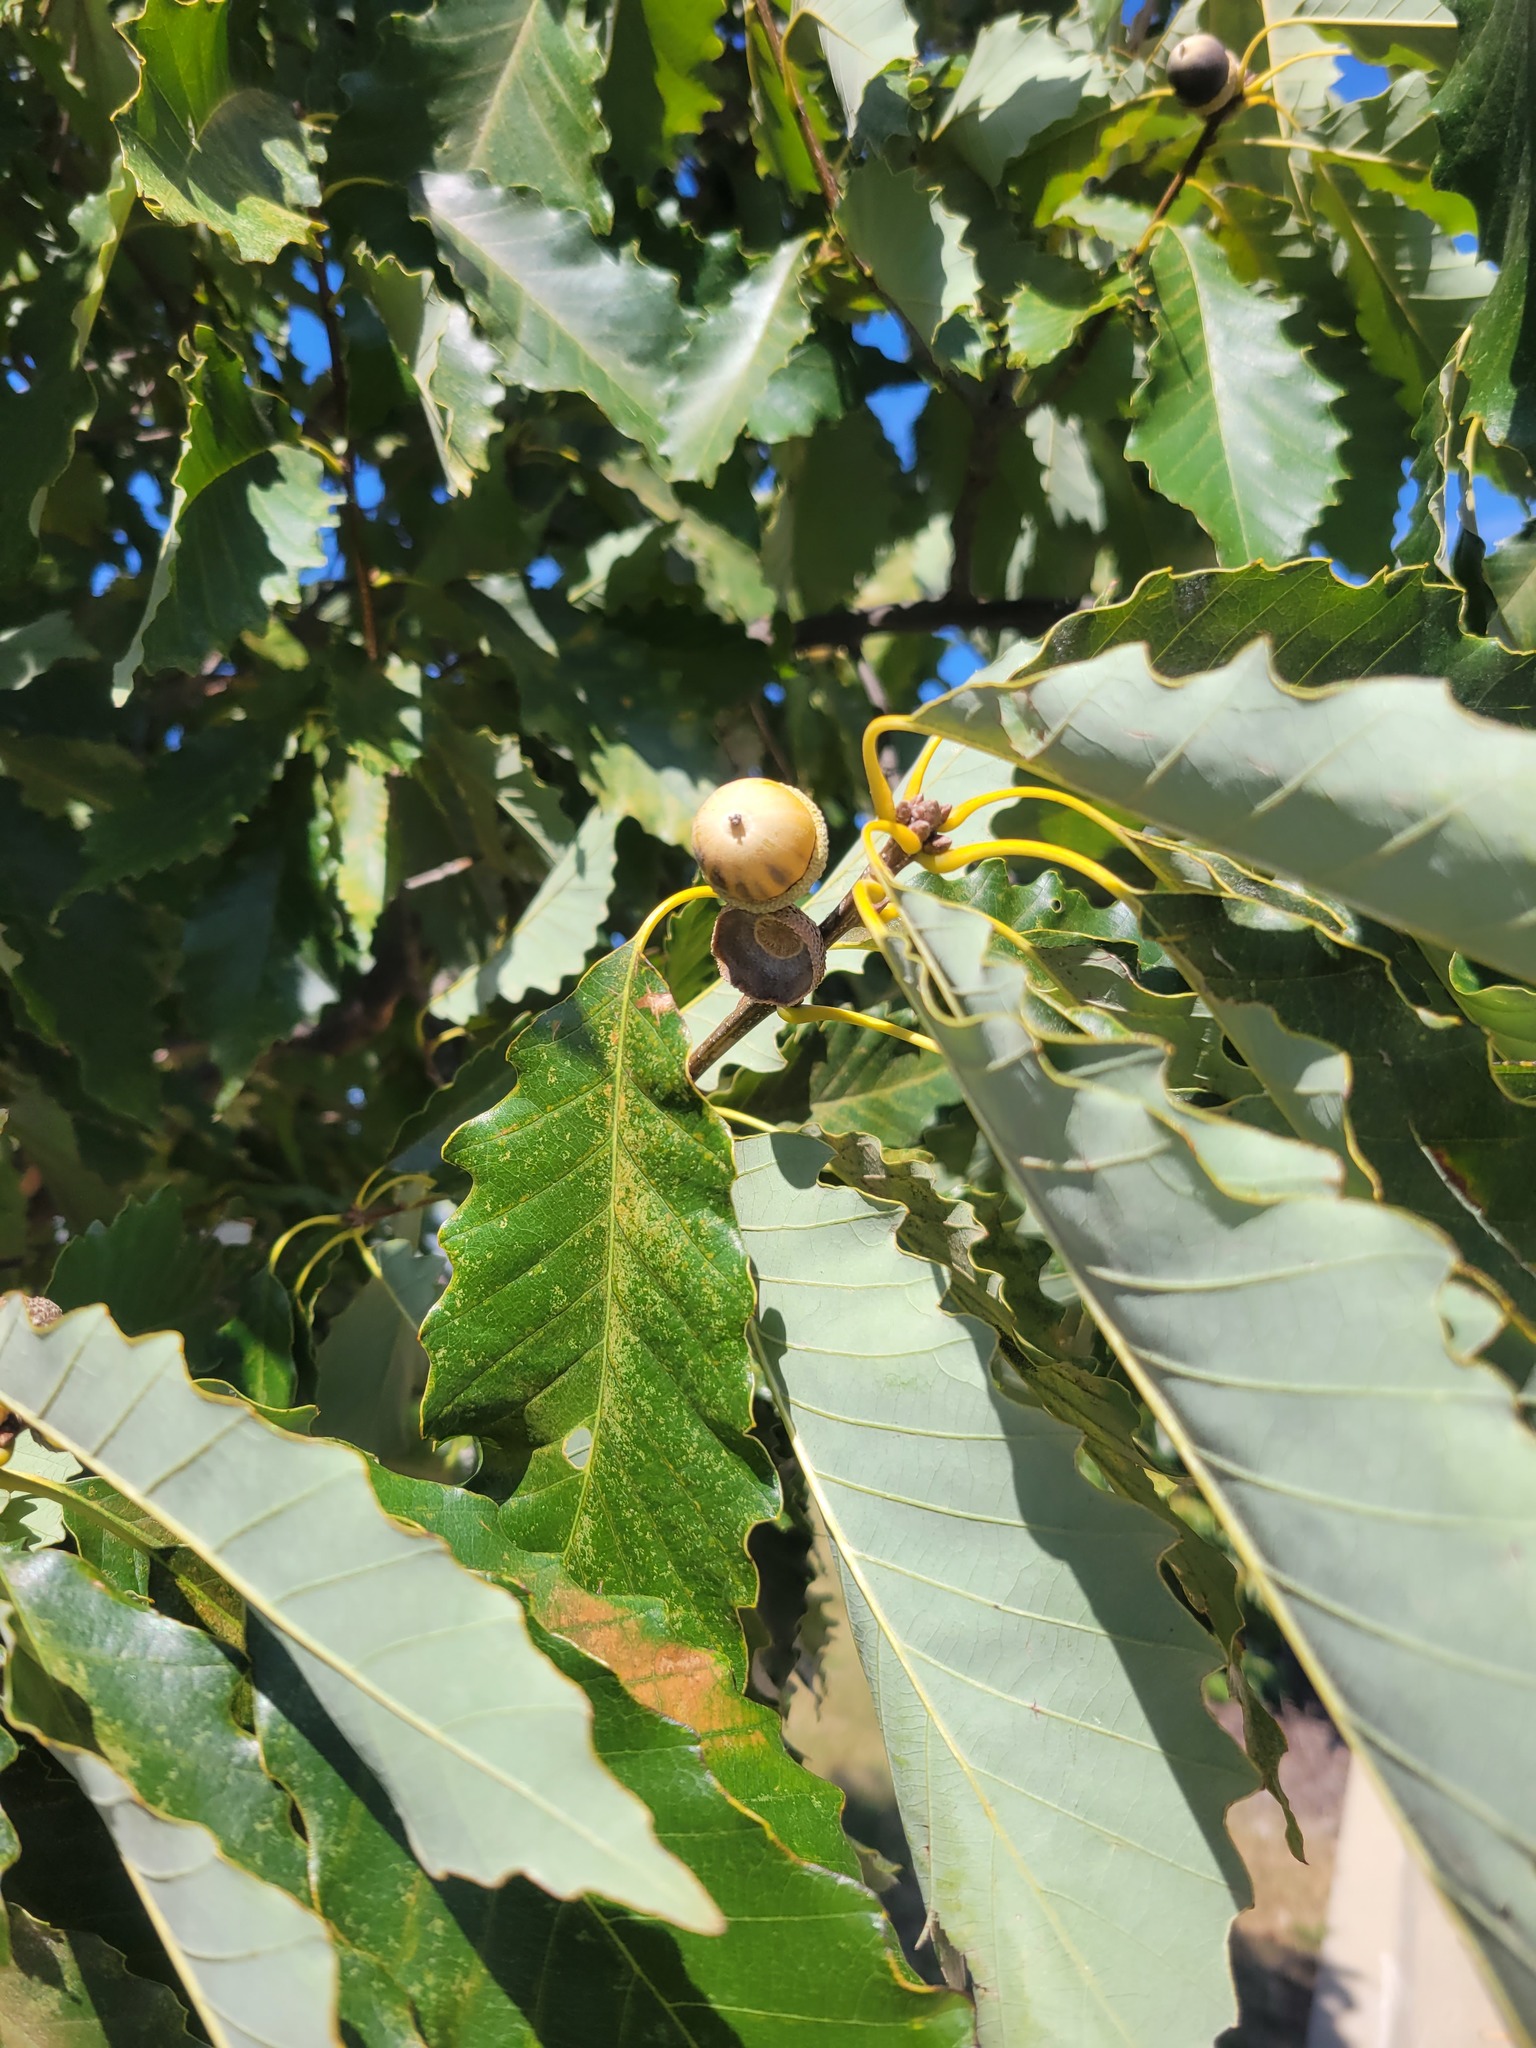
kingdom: Plantae
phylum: Tracheophyta
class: Magnoliopsida
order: Fagales
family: Fagaceae
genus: Quercus
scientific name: Quercus muehlenbergii
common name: Chinkapin oak
